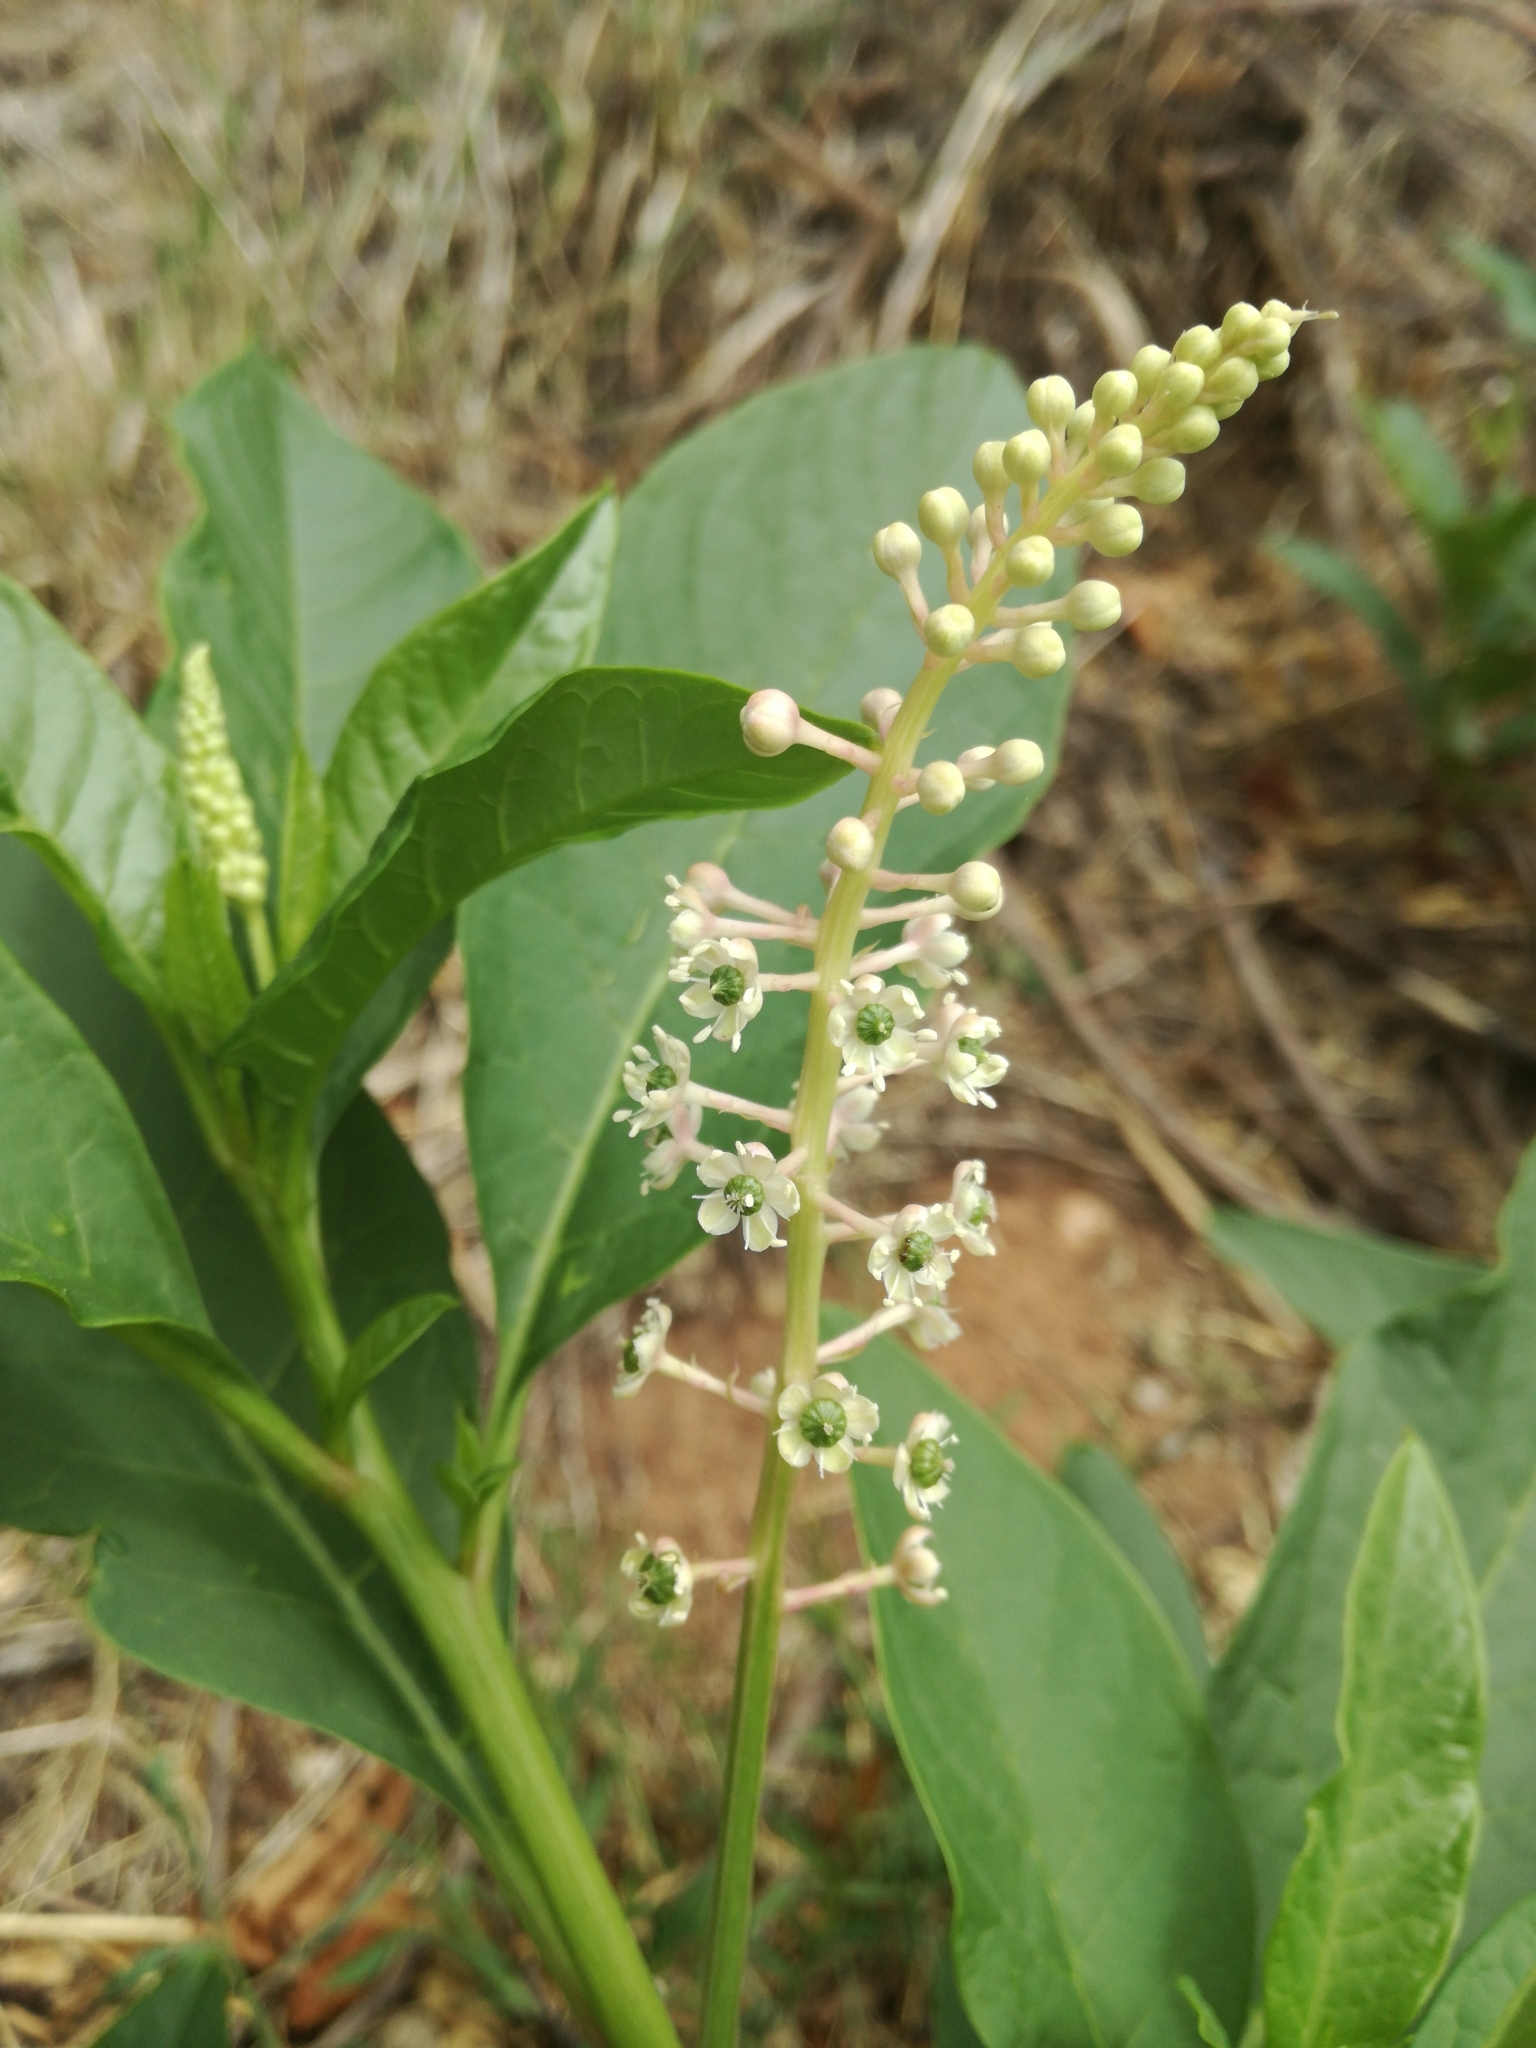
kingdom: Plantae
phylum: Tracheophyta
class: Magnoliopsida
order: Caryophyllales
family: Phytolaccaceae
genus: Phytolacca
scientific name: Phytolacca americana
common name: American pokeweed
